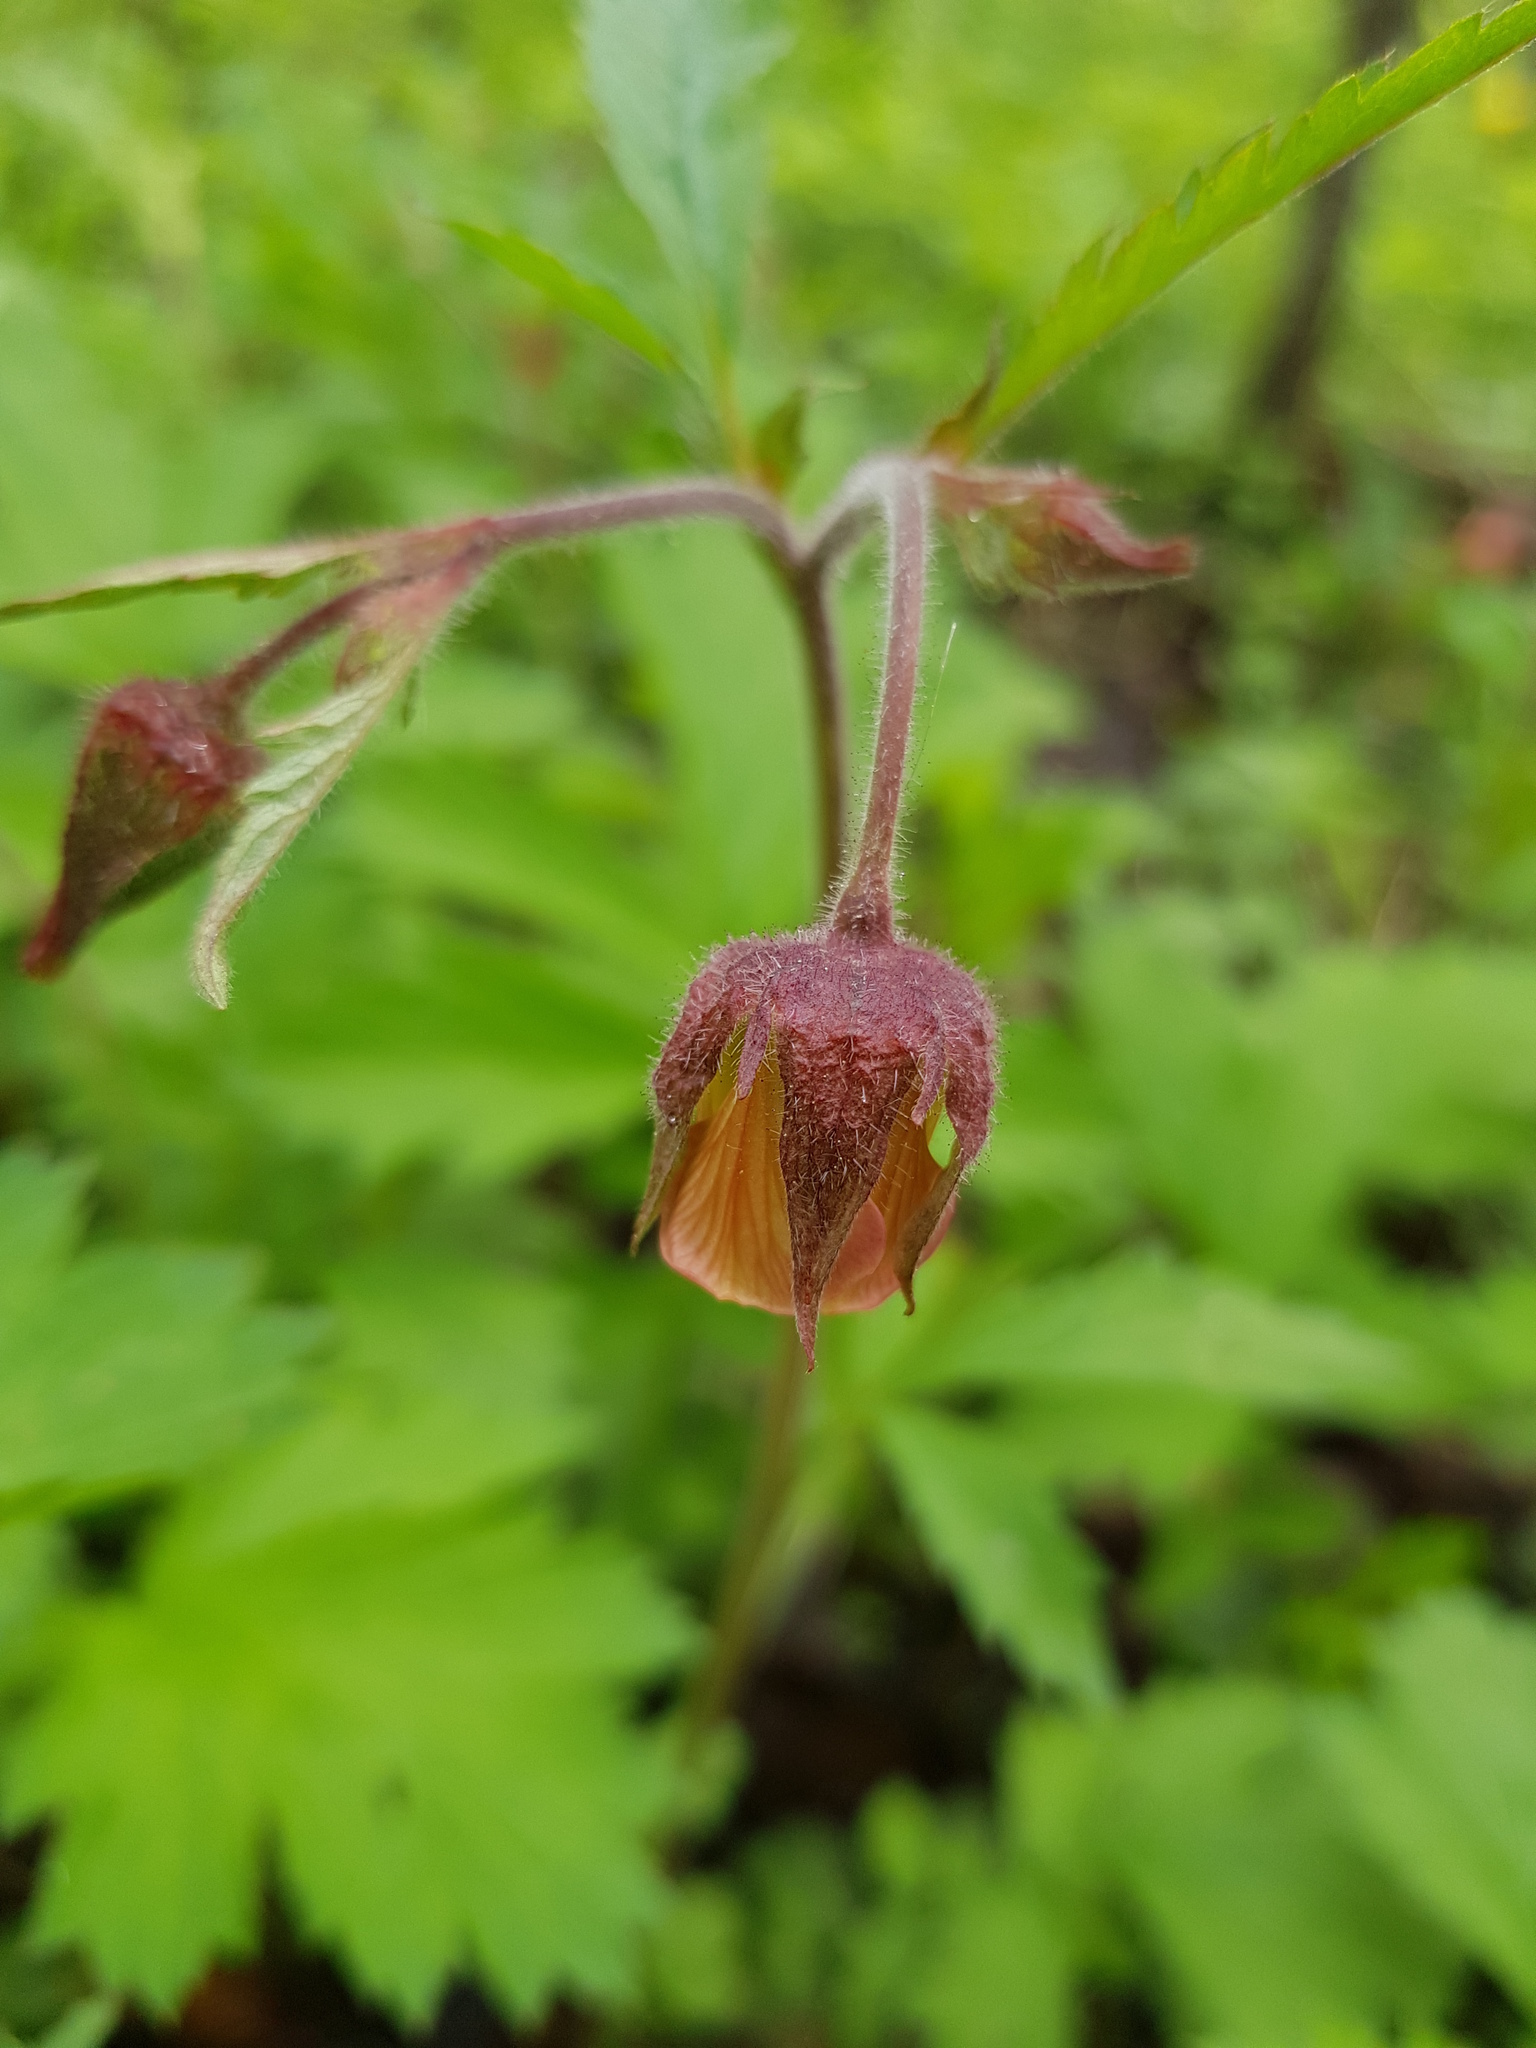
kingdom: Plantae
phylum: Tracheophyta
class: Magnoliopsida
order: Rosales
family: Rosaceae
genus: Geum
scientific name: Geum rivale
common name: Water avens
